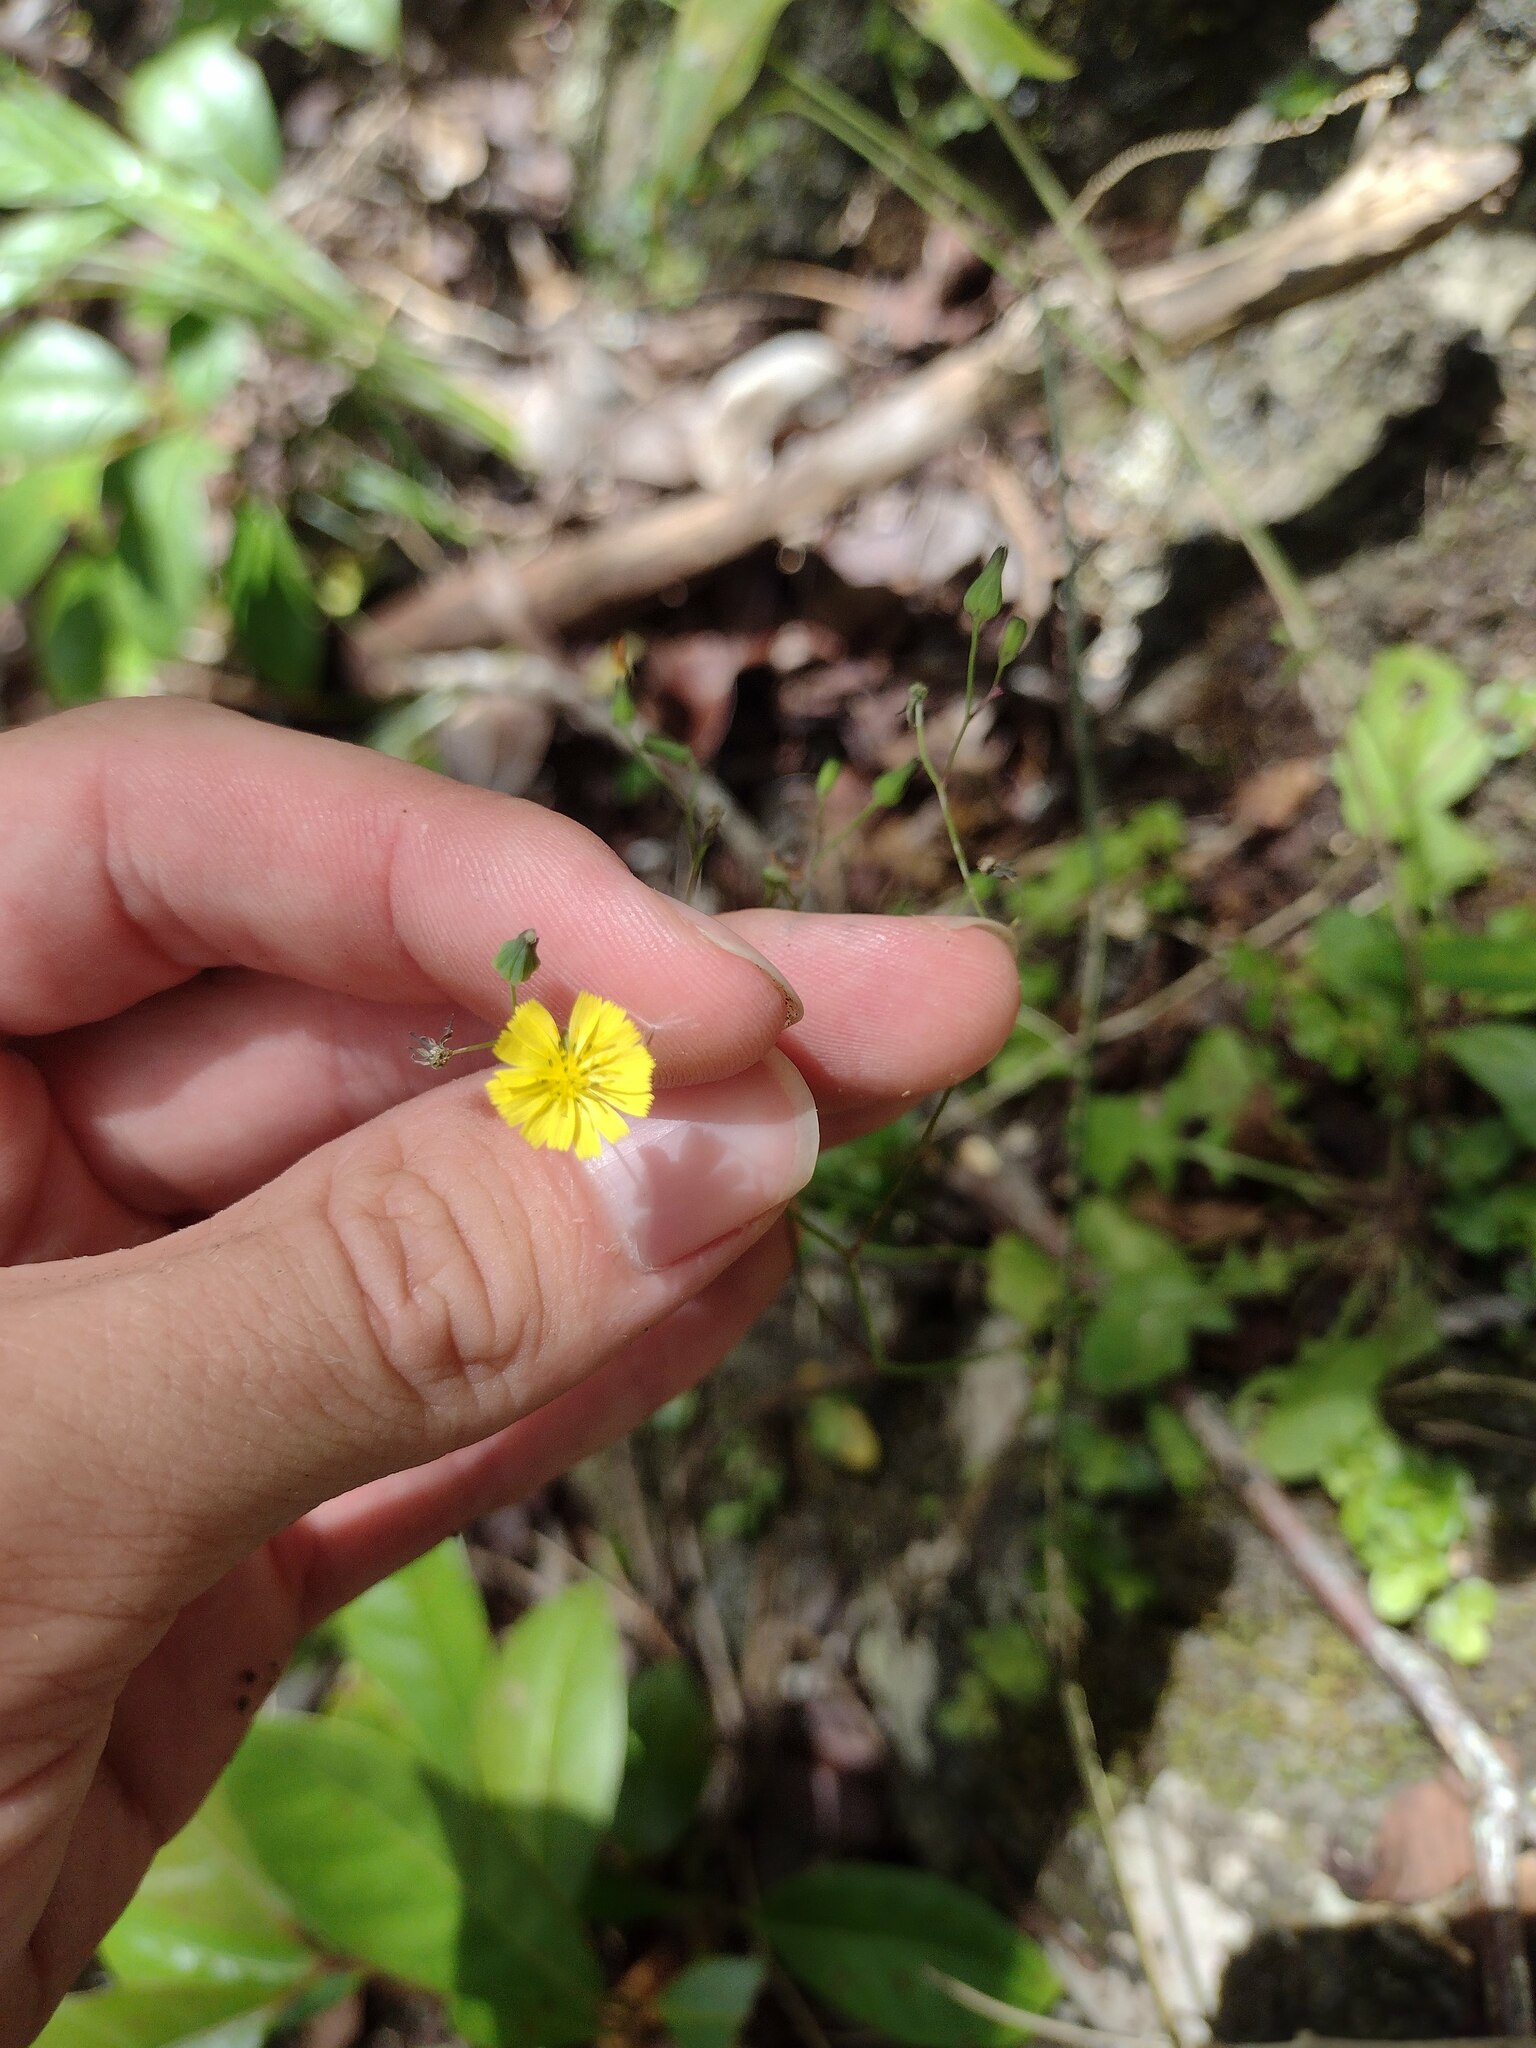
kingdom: Plantae
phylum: Tracheophyta
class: Magnoliopsida
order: Asterales
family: Asteraceae
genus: Youngia
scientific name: Youngia japonica
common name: Oriental false hawksbeard
